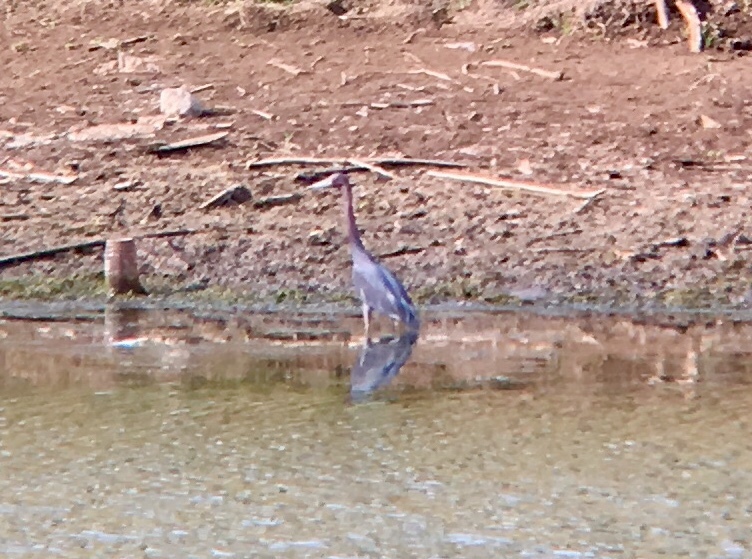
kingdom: Animalia
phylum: Chordata
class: Aves
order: Pelecaniformes
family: Ardeidae
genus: Egretta
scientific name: Egretta caerulea
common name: Little blue heron
